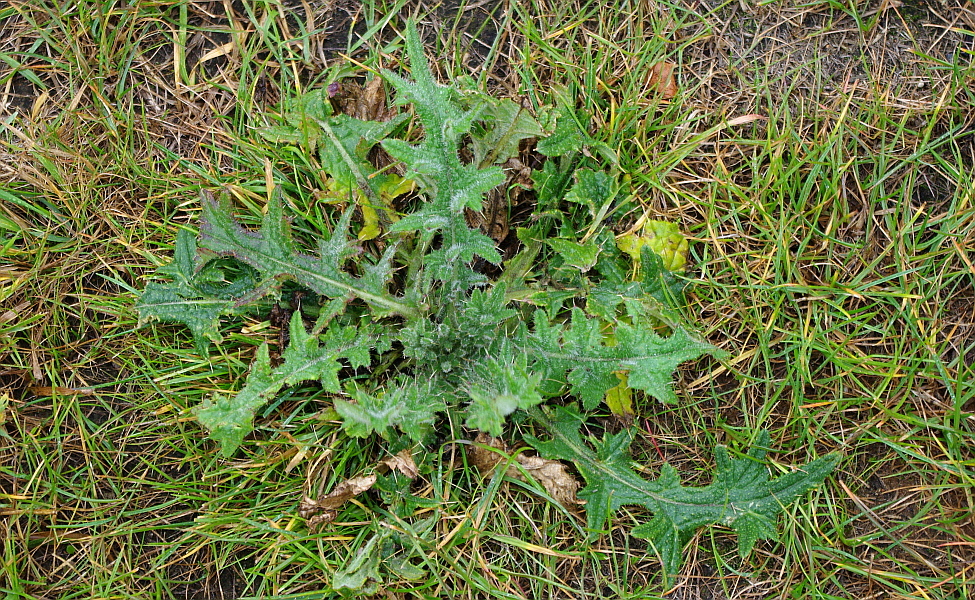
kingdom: Plantae
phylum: Tracheophyta
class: Magnoliopsida
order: Asterales
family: Asteraceae
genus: Cirsium
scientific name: Cirsium vulgare
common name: Bull thistle
